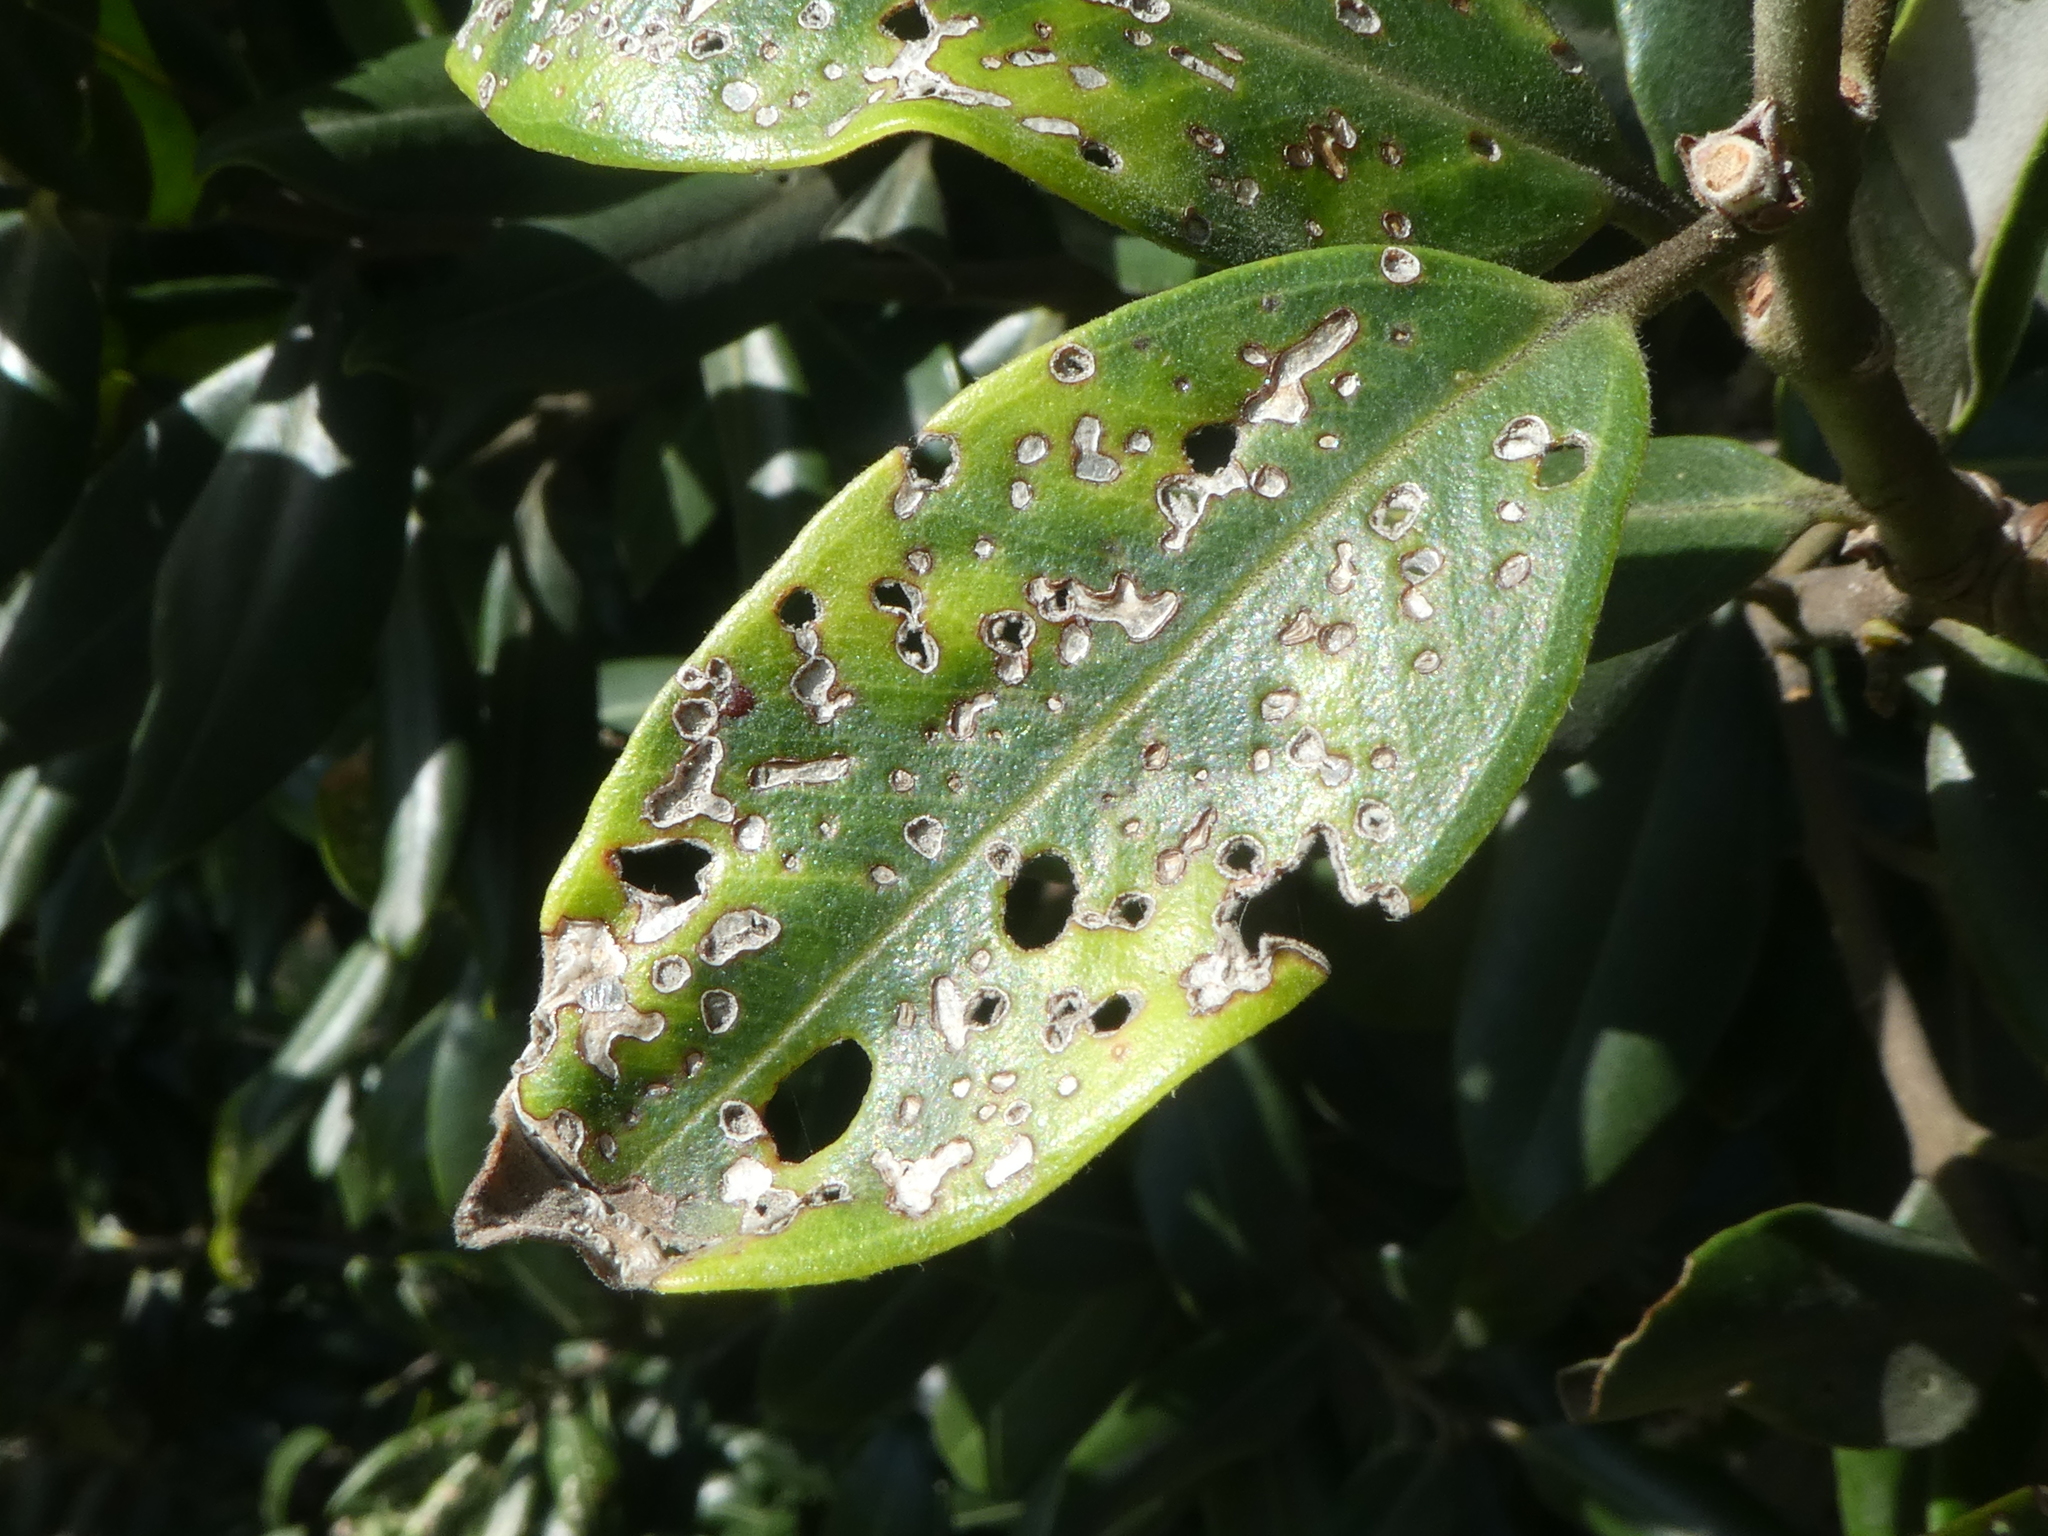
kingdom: Animalia
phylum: Arthropoda
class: Insecta
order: Coleoptera
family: Curculionidae
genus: Neomycta
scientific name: Neomycta rubida
